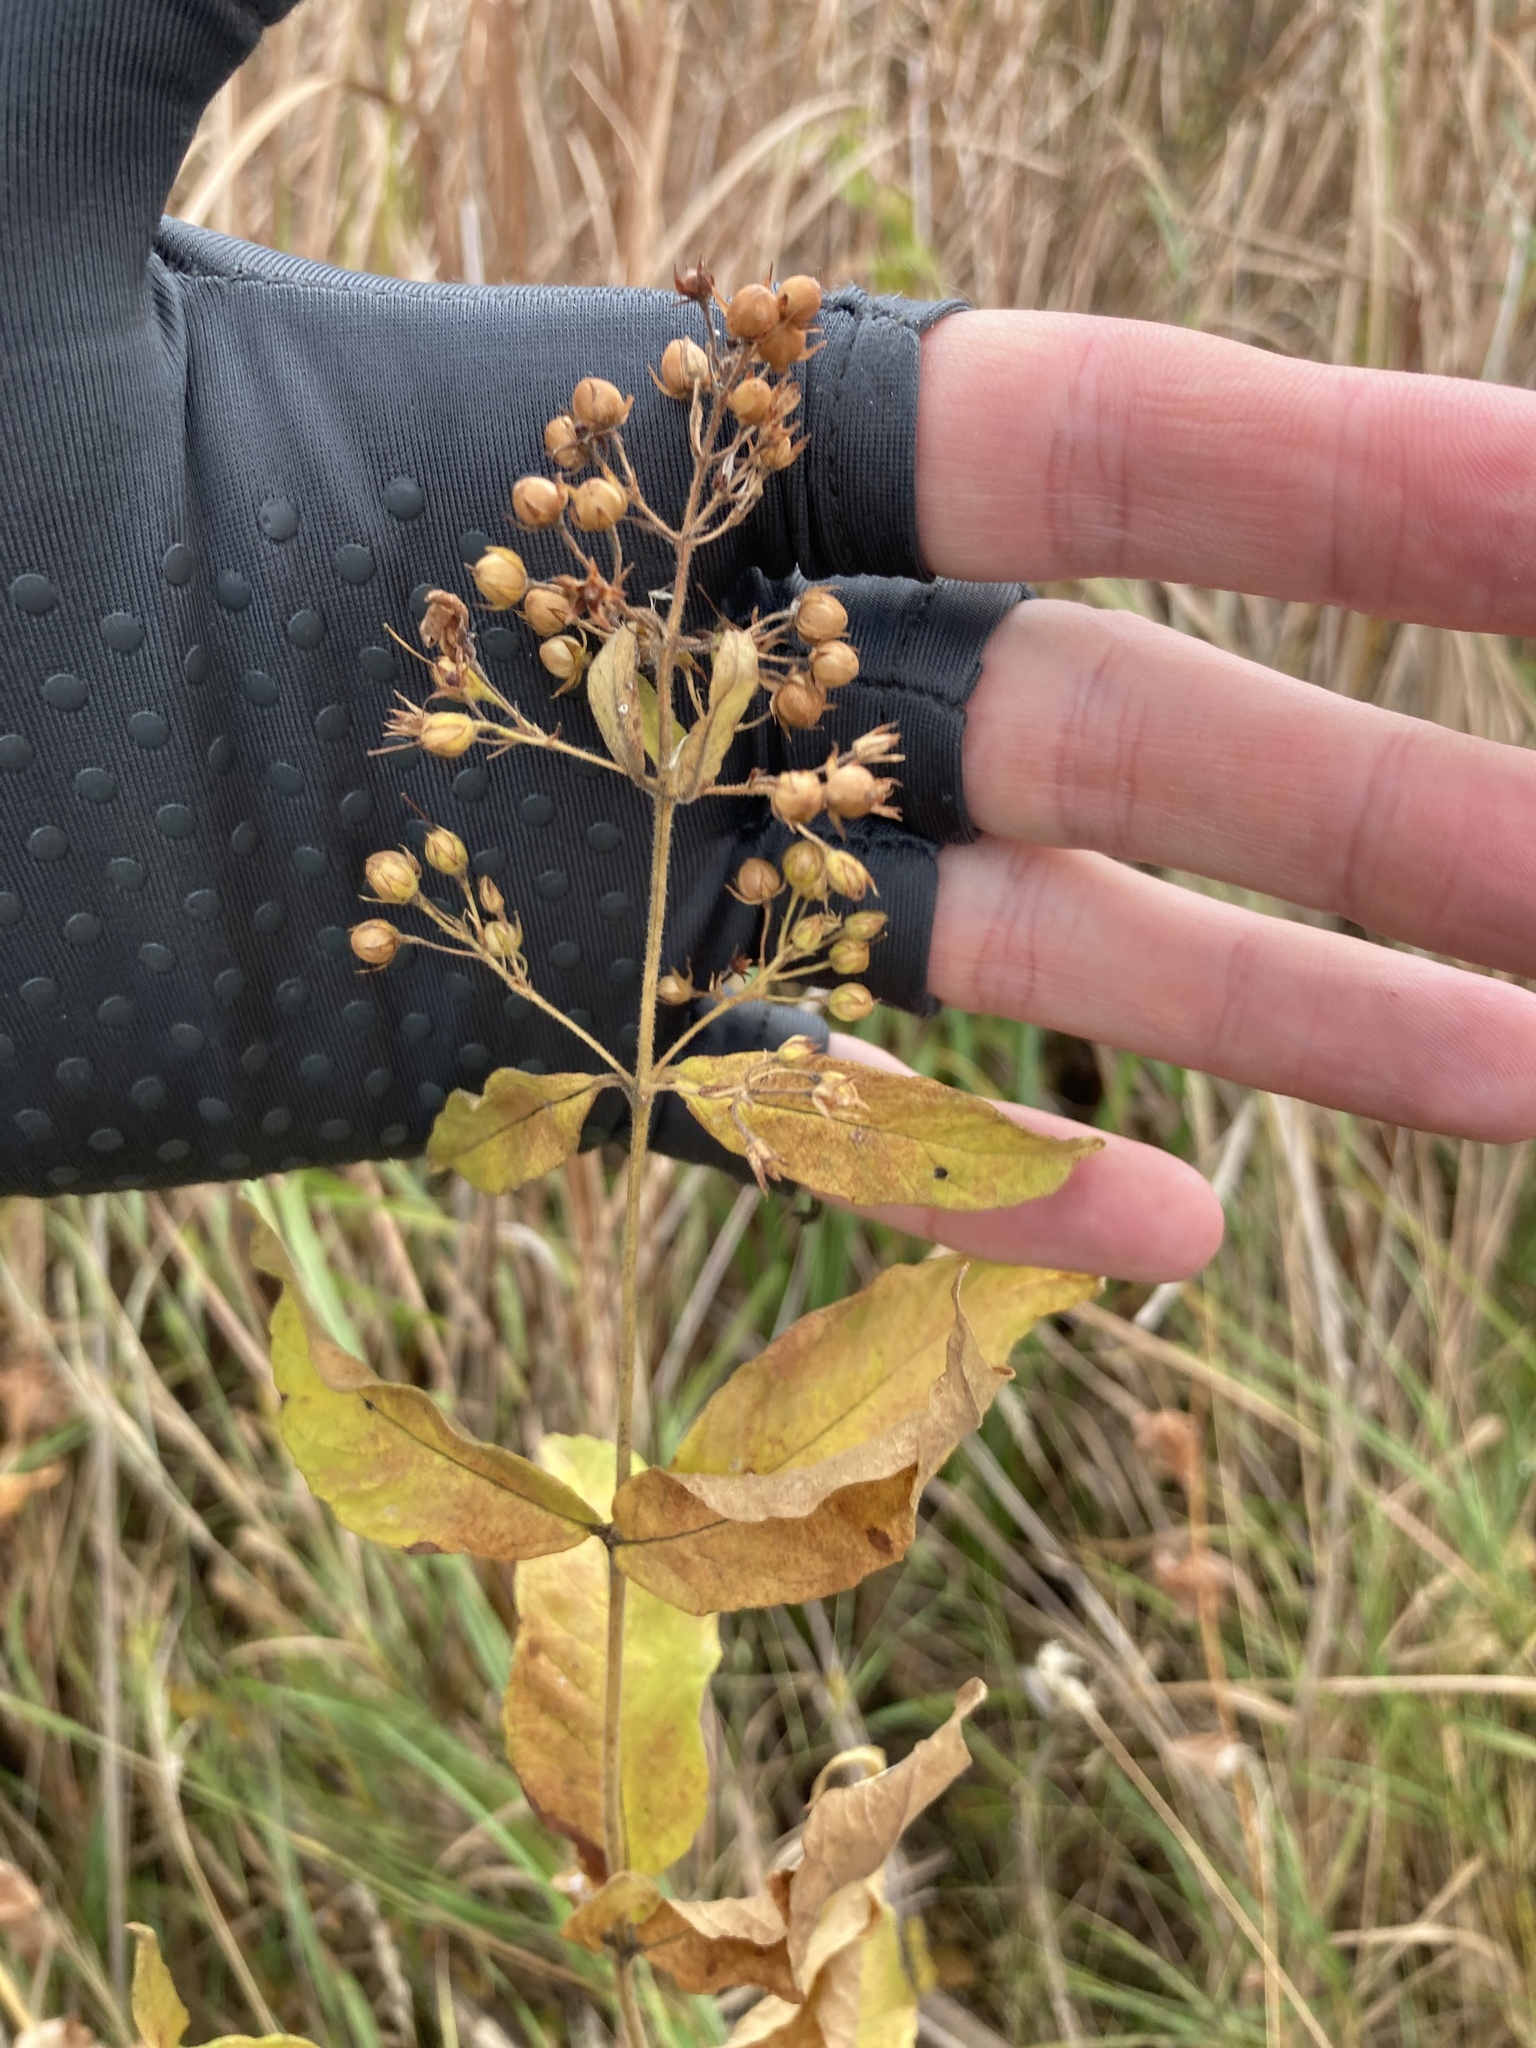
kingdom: Plantae
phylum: Tracheophyta
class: Magnoliopsida
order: Ericales
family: Primulaceae
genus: Lysimachia
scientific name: Lysimachia vulgaris
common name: Yellow loosestrife
